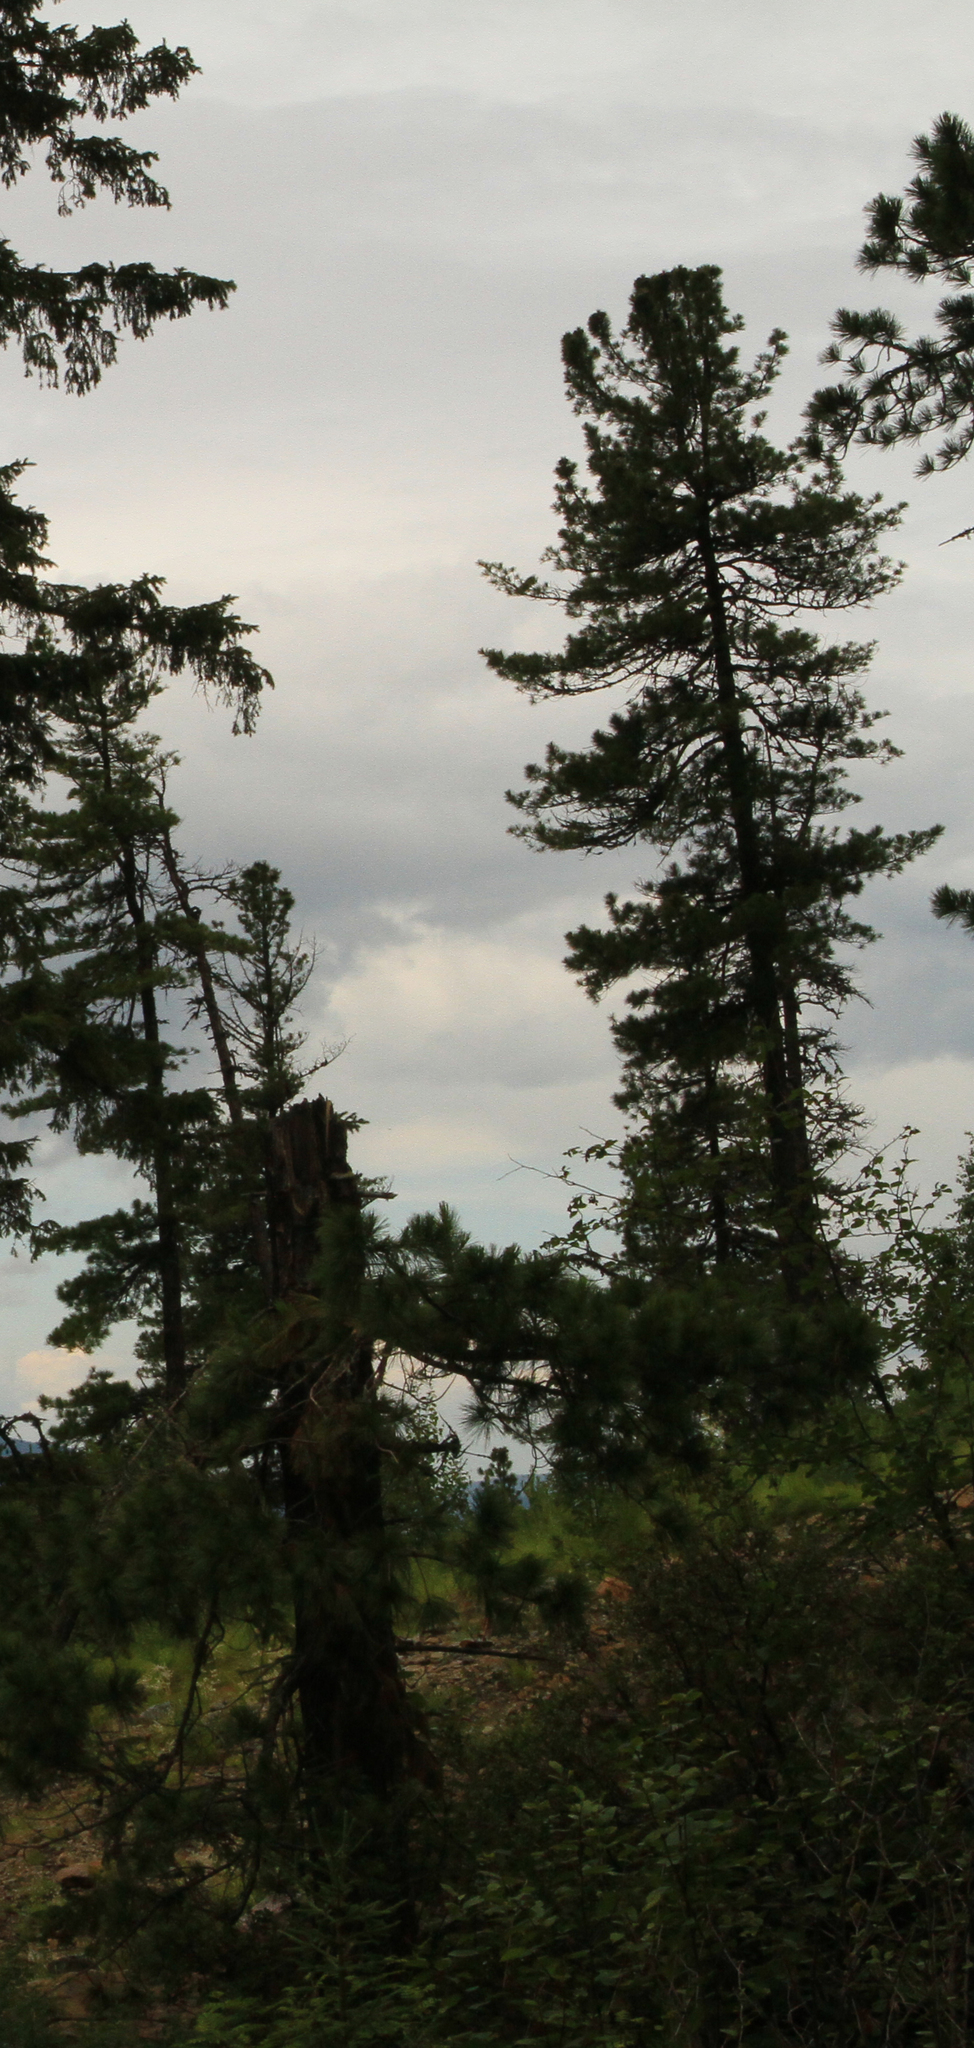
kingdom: Plantae
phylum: Tracheophyta
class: Pinopsida
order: Pinales
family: Pinaceae
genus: Pinus
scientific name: Pinus sibirica
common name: Siberian pine
